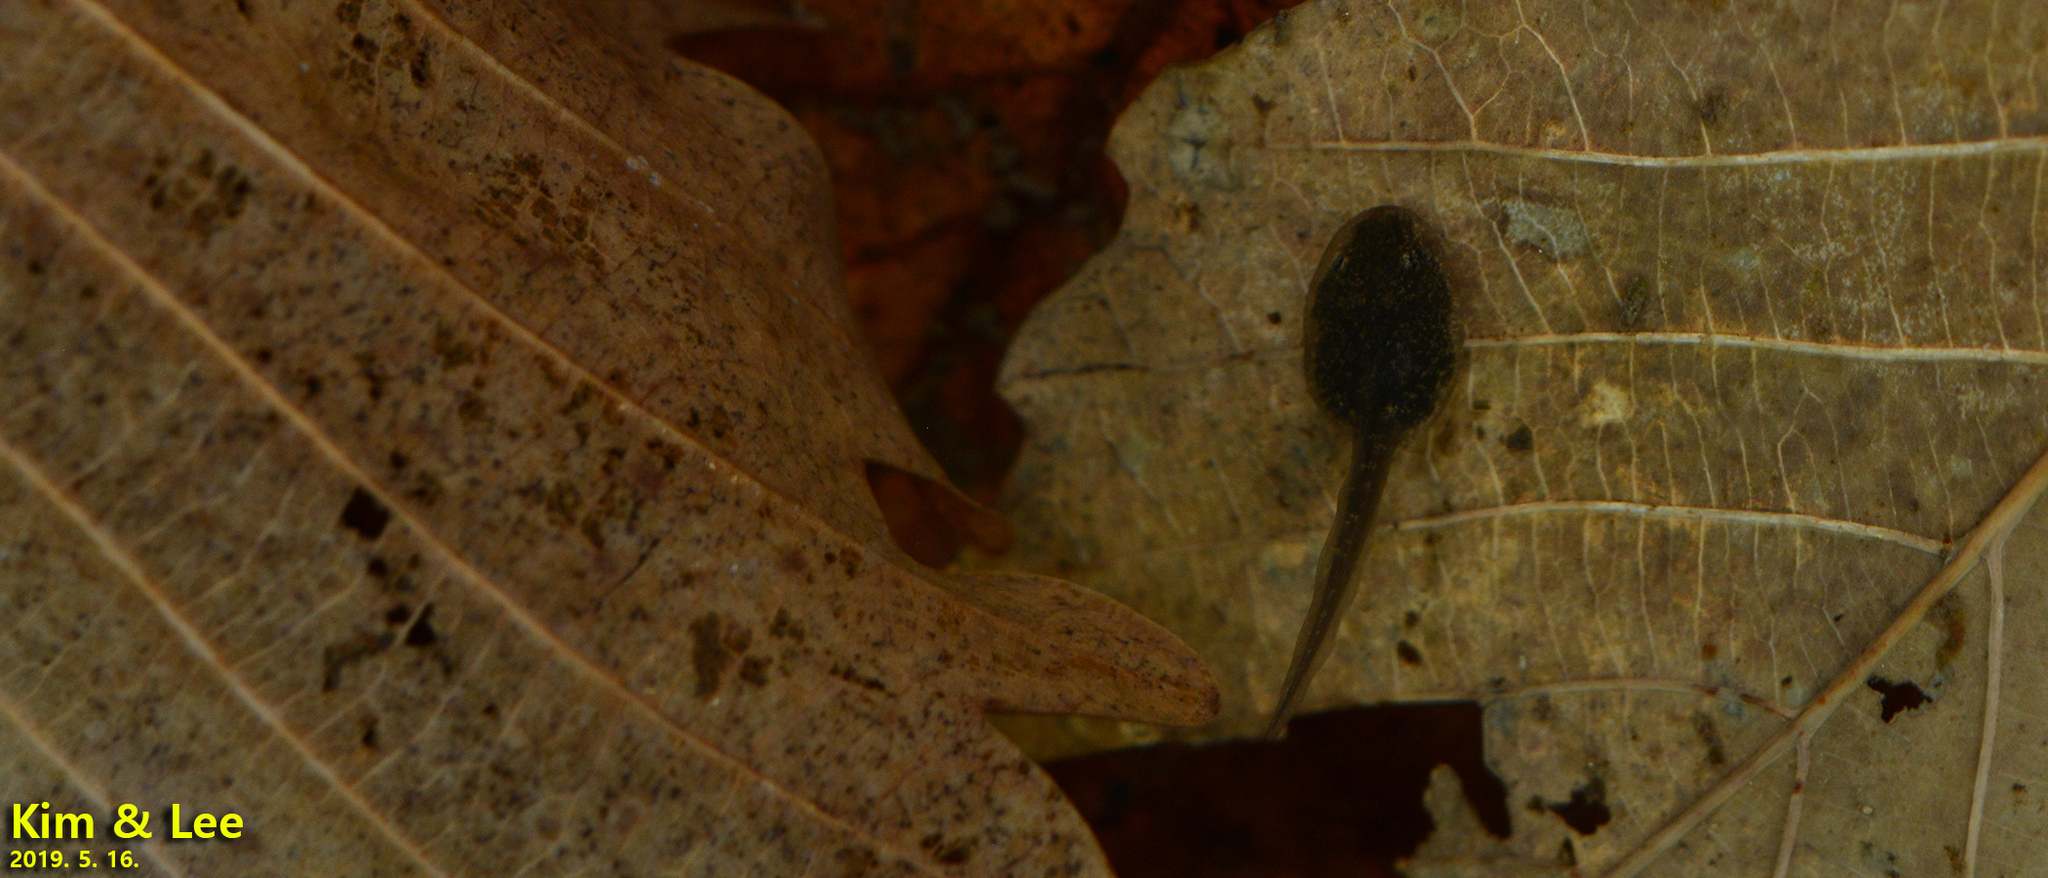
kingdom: Animalia
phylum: Chordata
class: Amphibia
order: Anura
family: Ranidae
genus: Rana
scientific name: Rana huanrenensis
